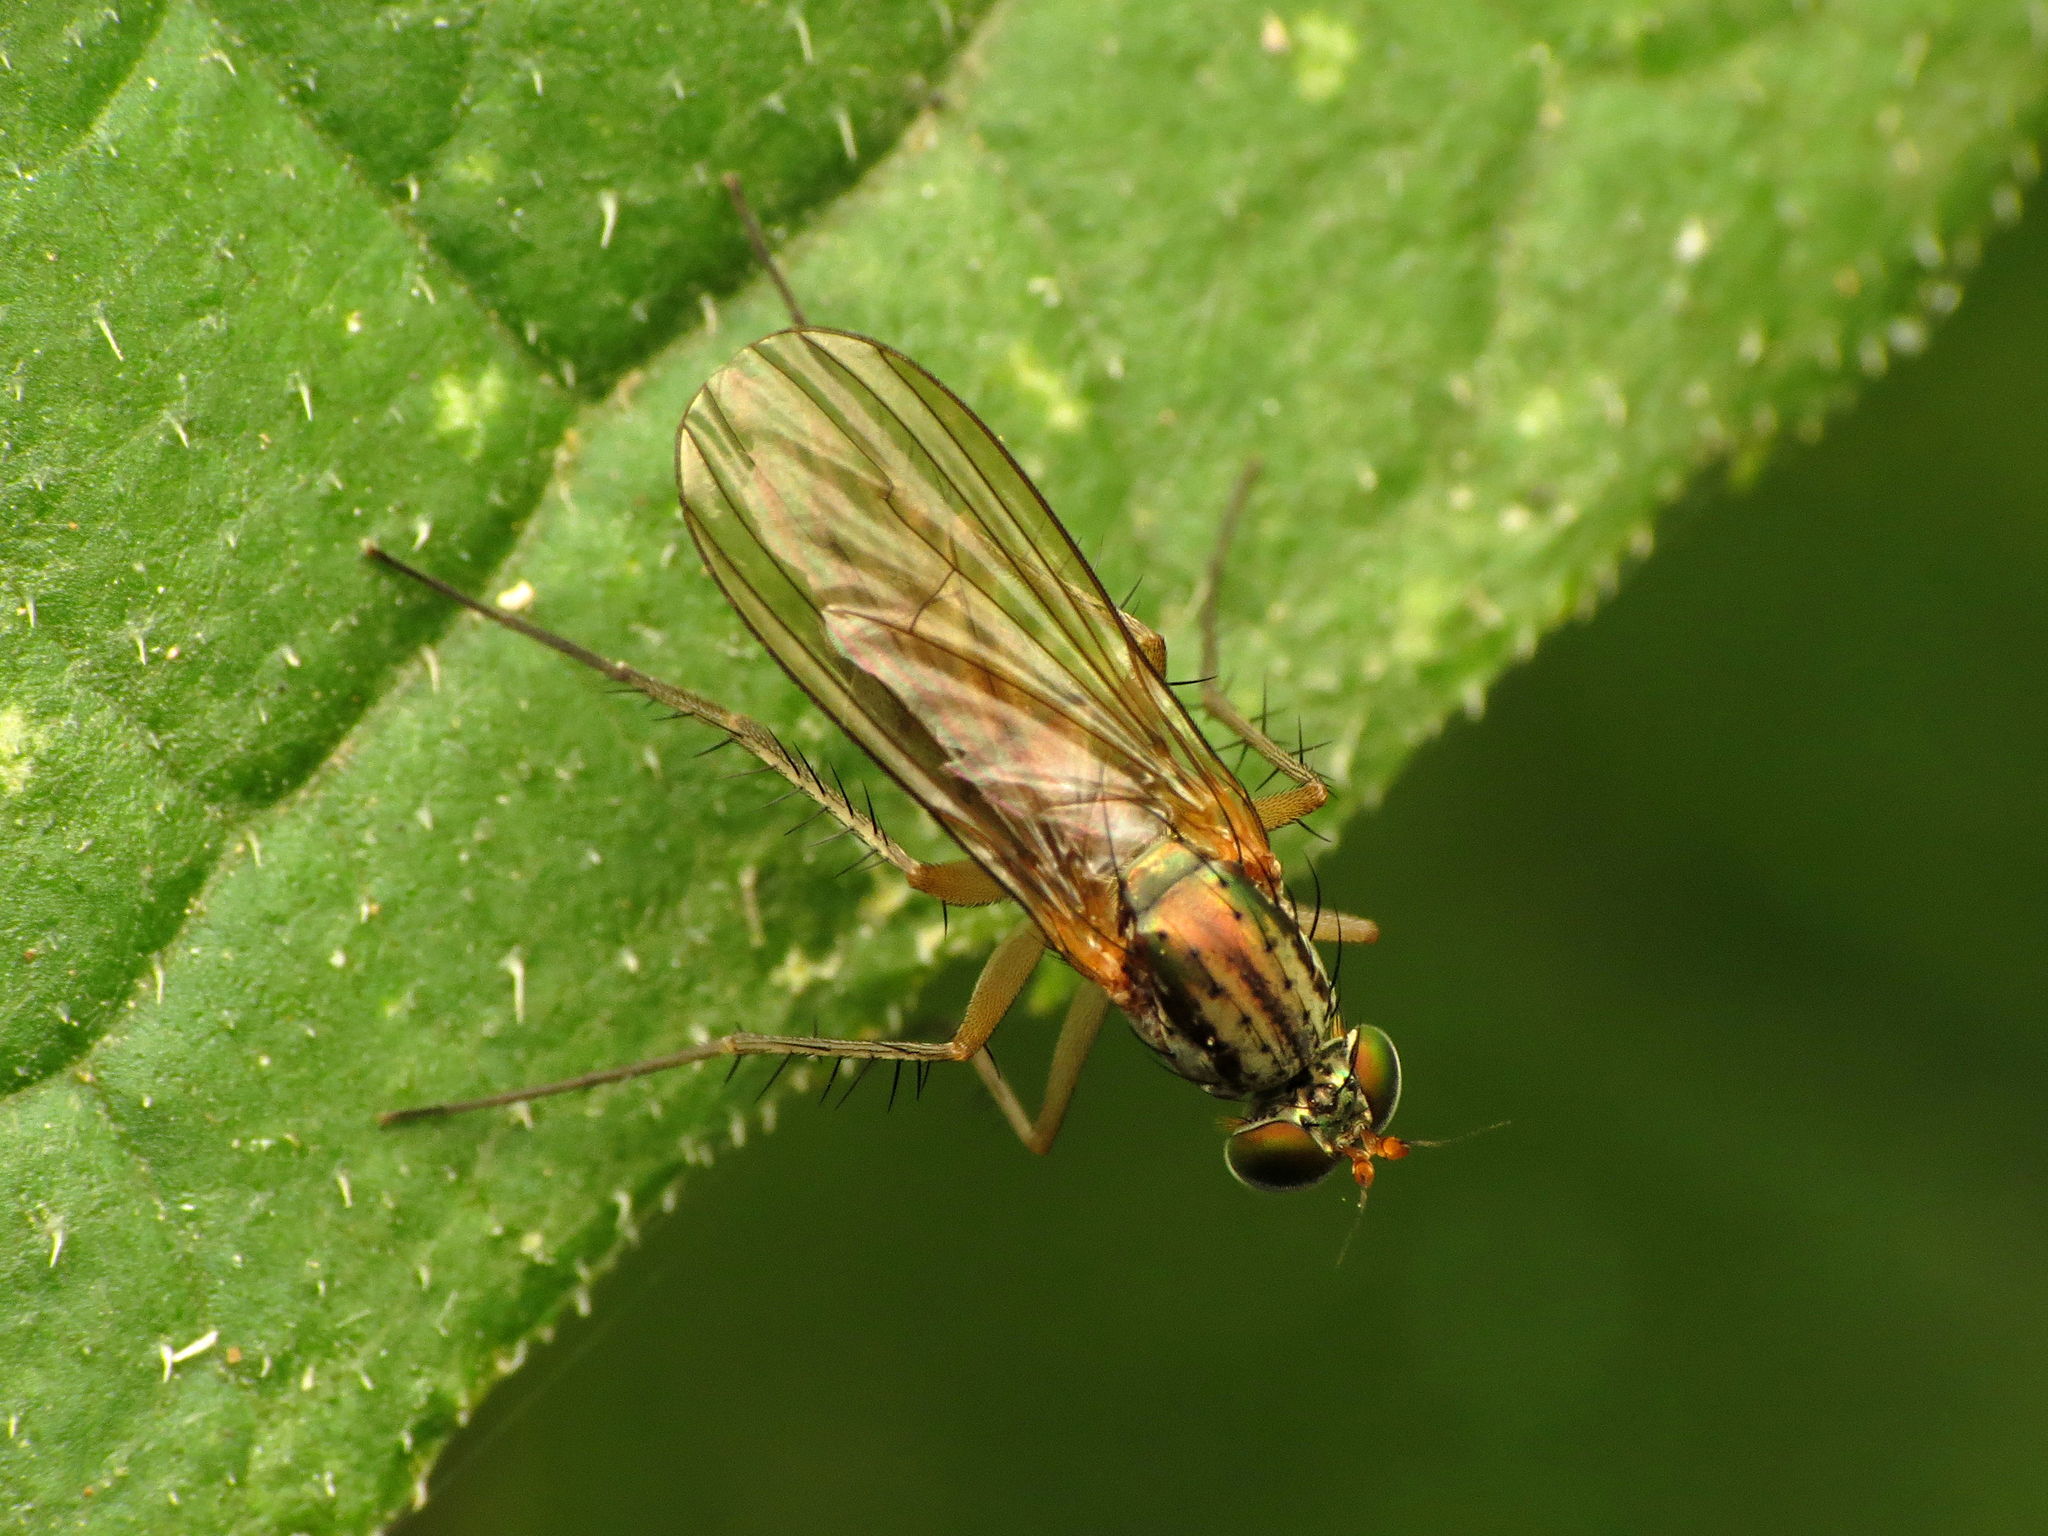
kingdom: Animalia
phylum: Arthropoda
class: Insecta
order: Diptera
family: Dolichopodidae
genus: Dolichopus
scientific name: Dolichopus
